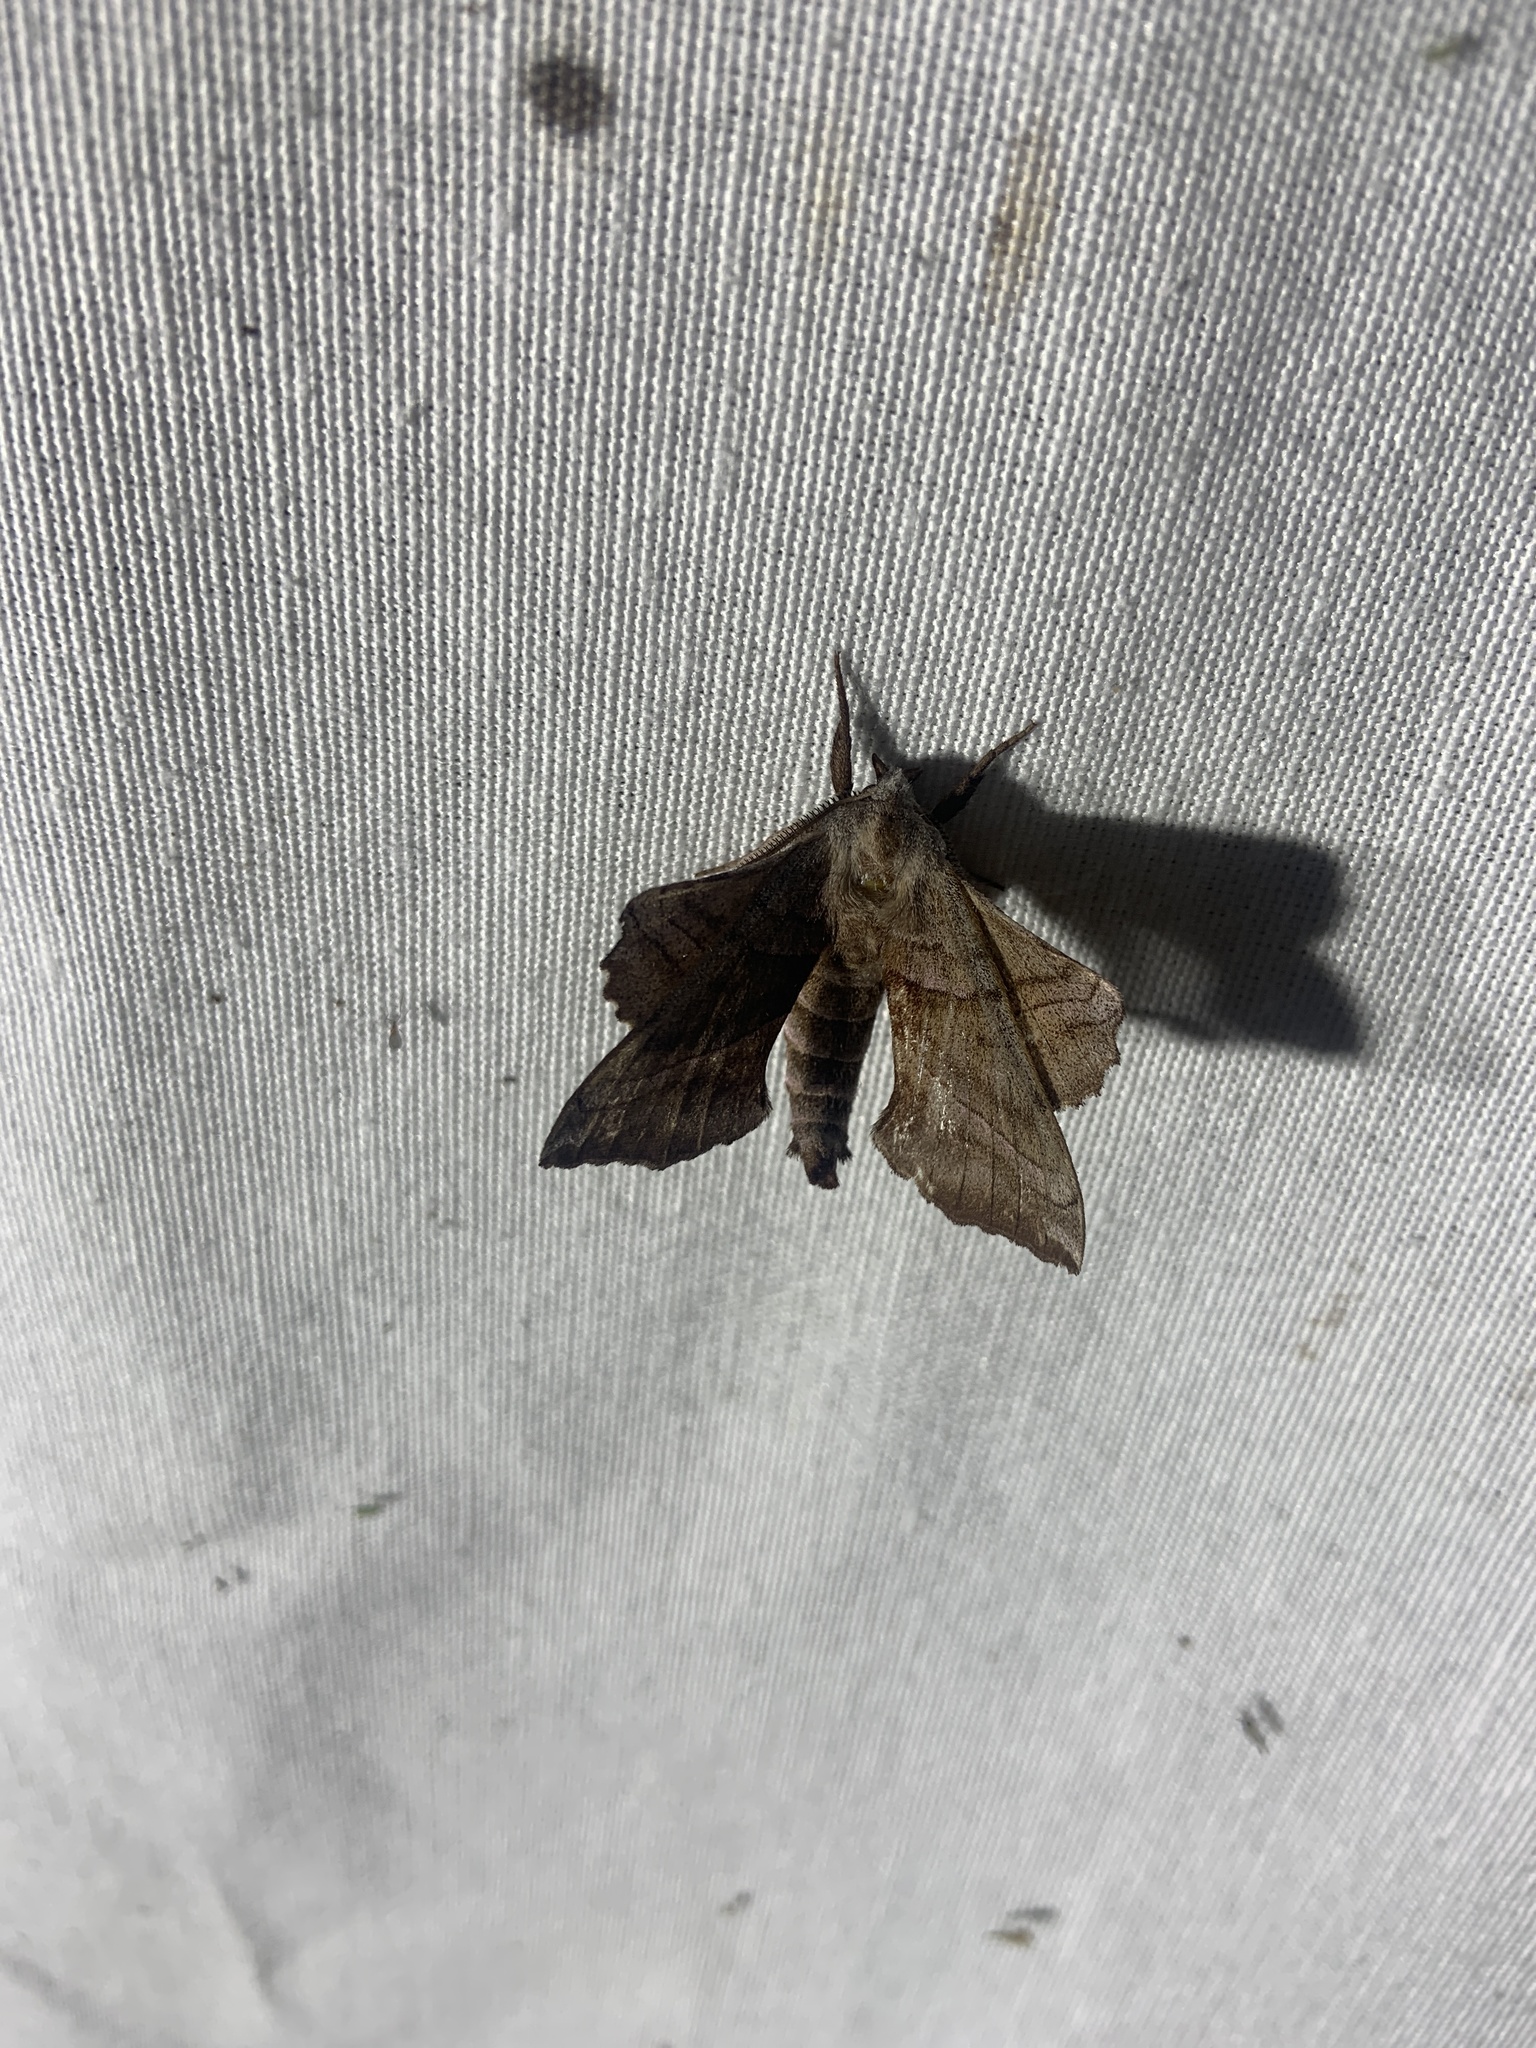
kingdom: Animalia
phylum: Arthropoda
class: Insecta
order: Lepidoptera
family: Sphingidae
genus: Amorpha
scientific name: Amorpha juglandis
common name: Walnut sphinx
